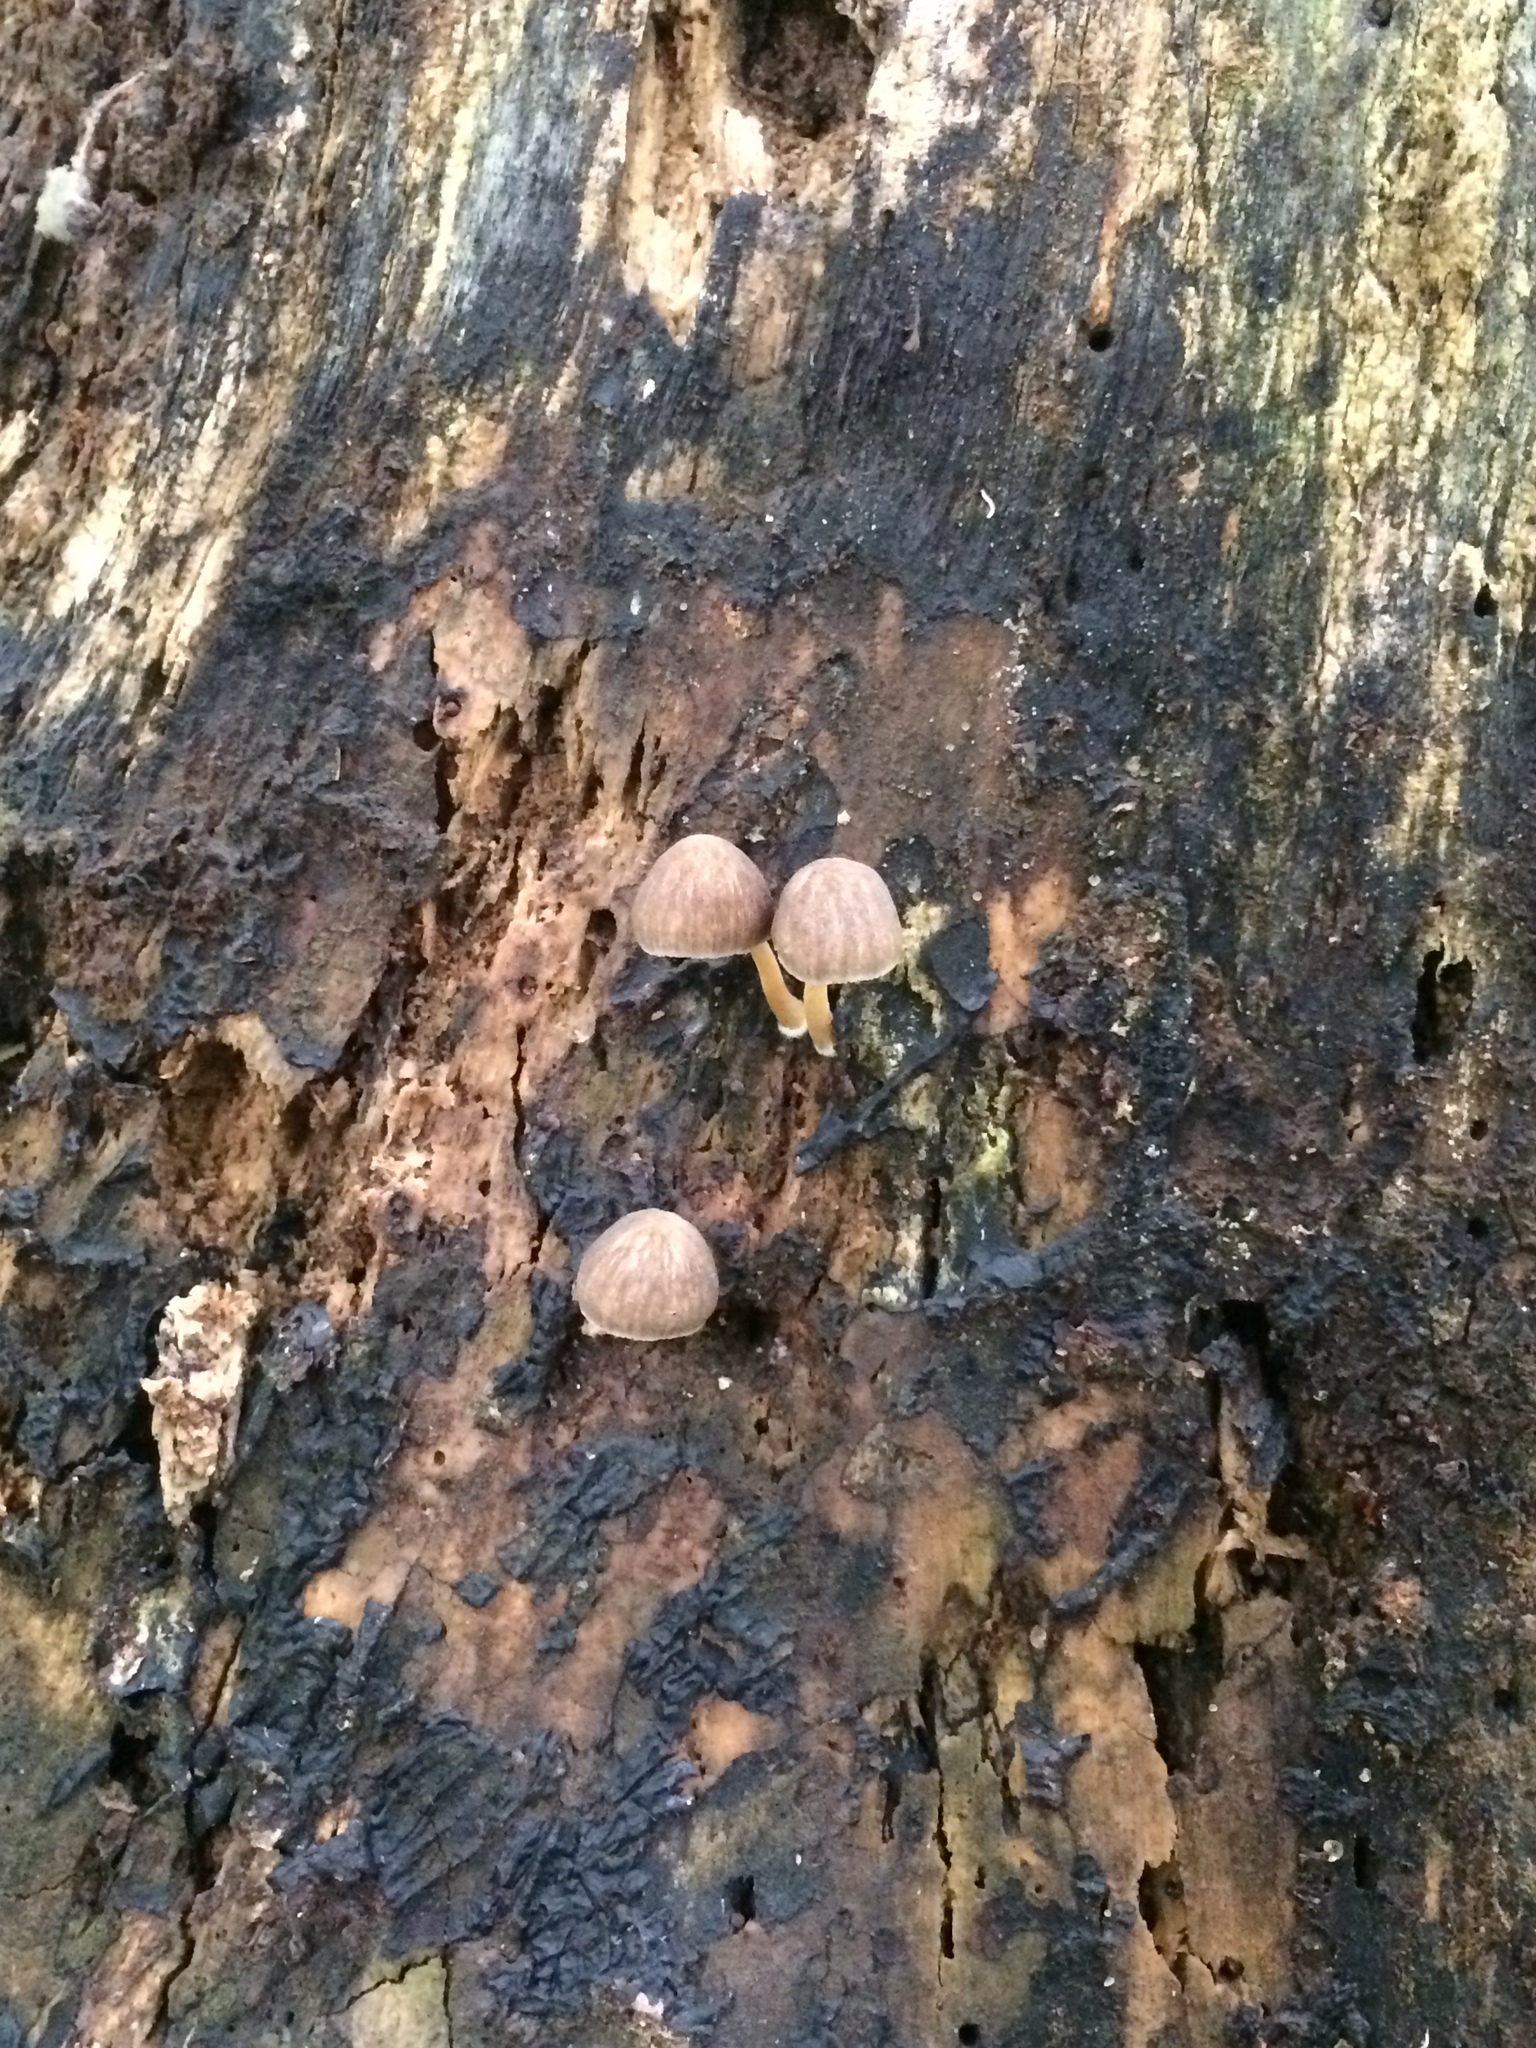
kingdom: Fungi
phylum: Basidiomycota
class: Agaricomycetes
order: Agaricales
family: Pluteaceae
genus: Pluteus
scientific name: Pluteus longistriatus
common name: Pleated pluteus
